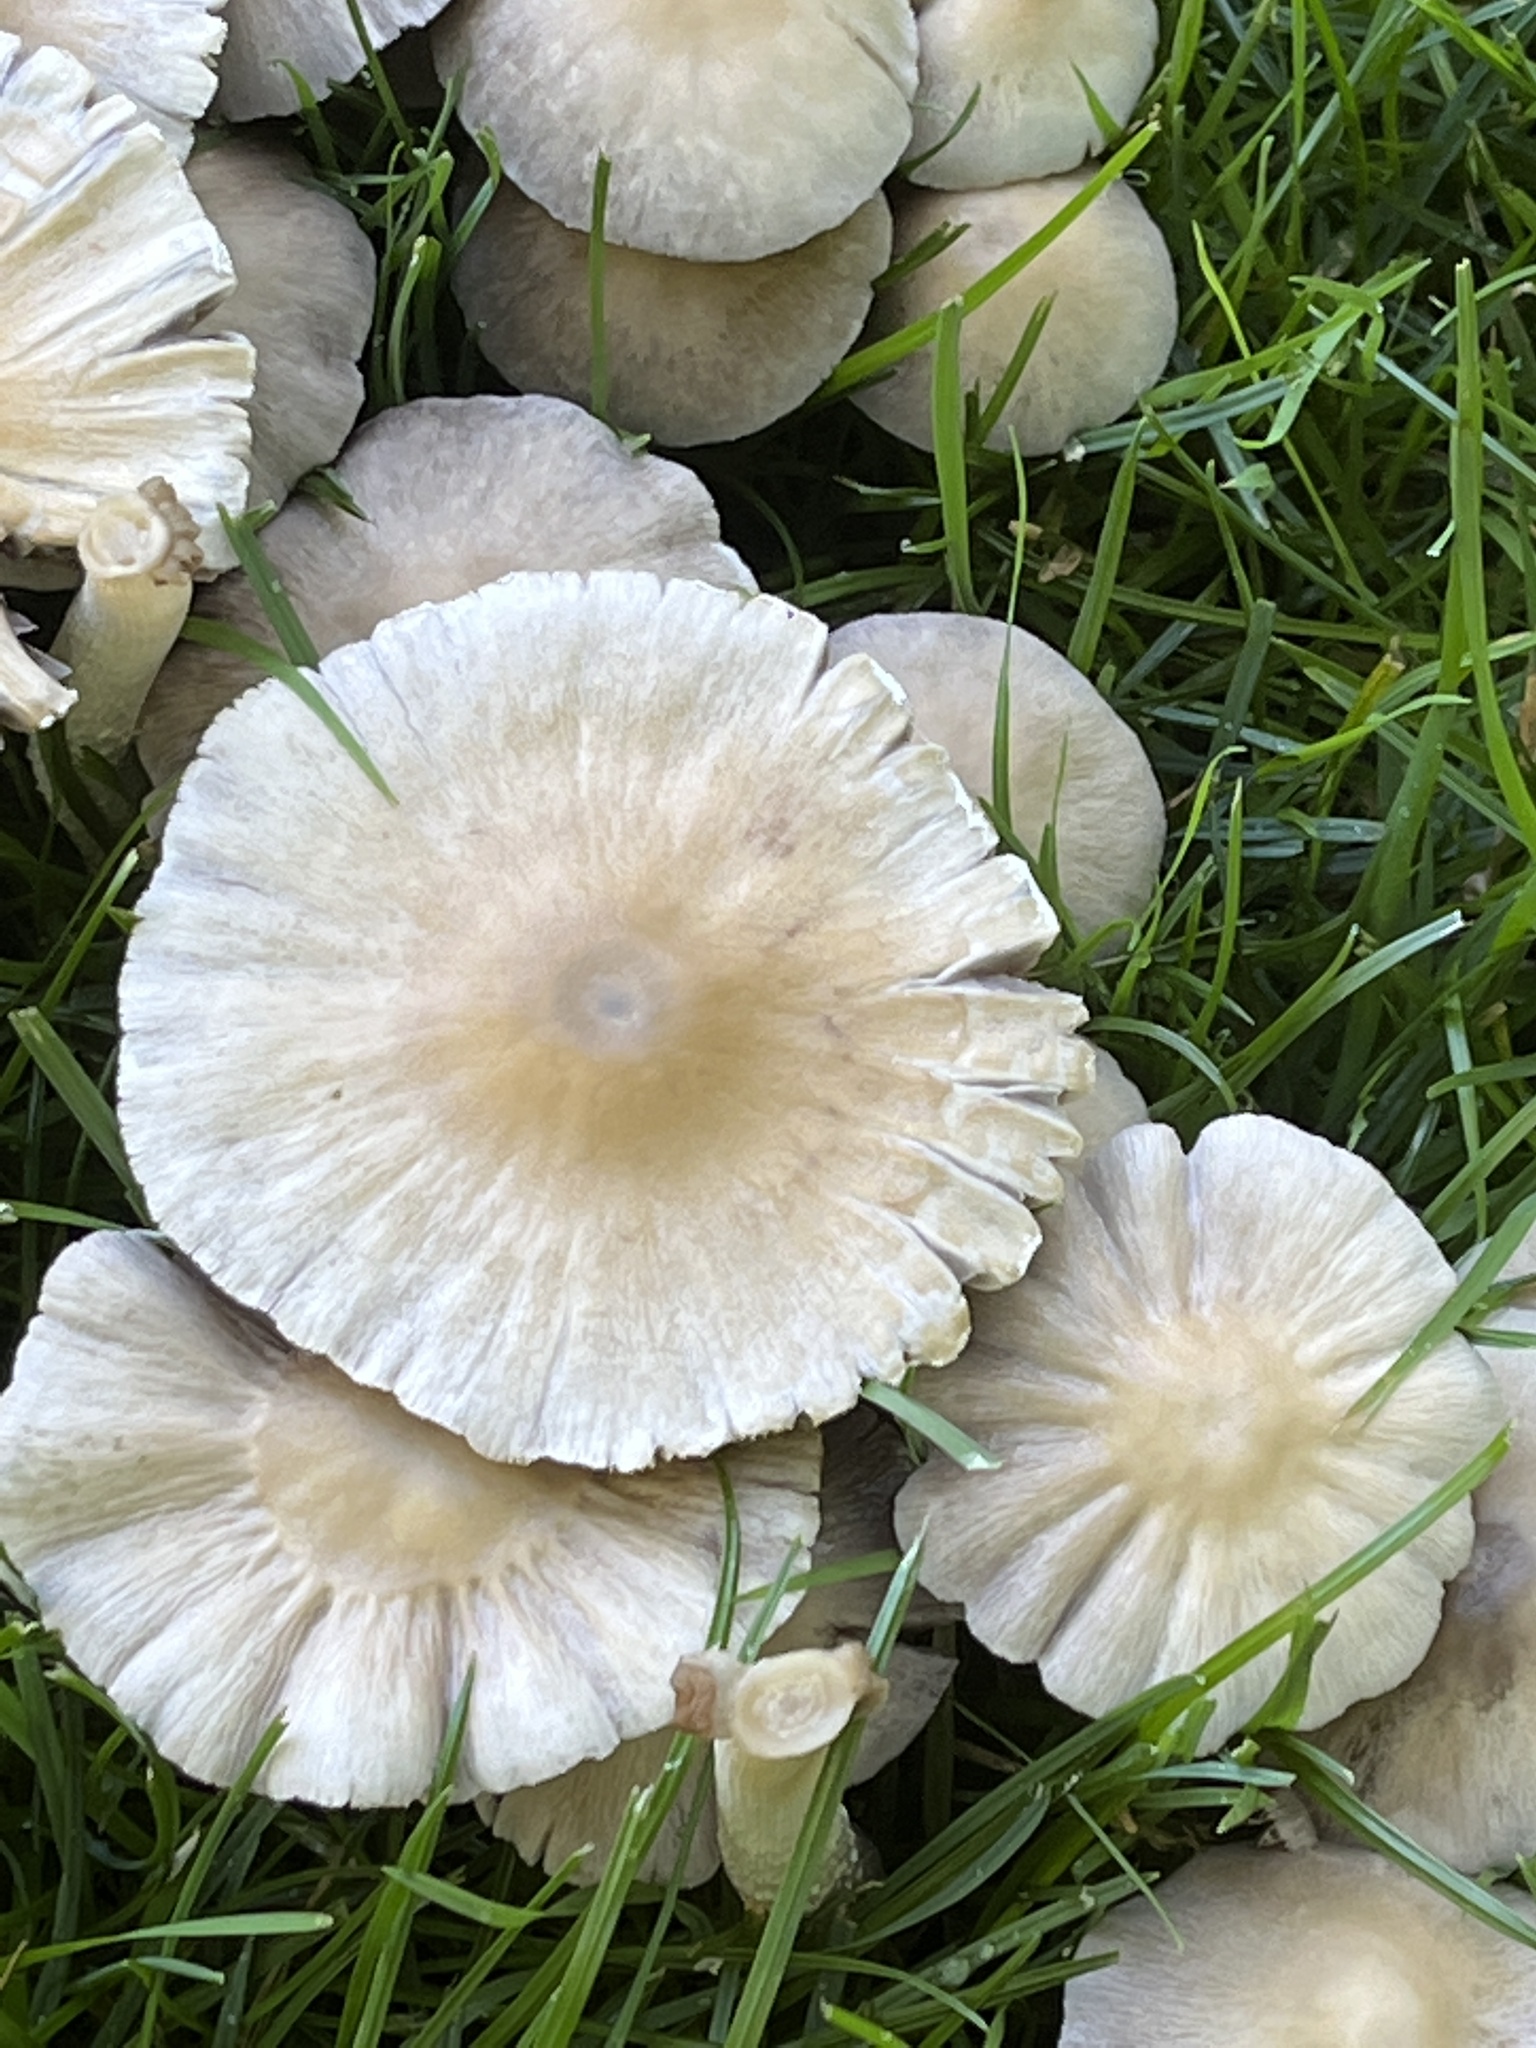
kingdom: Fungi
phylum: Basidiomycota
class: Agaricomycetes
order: Agaricales
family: Psathyrellaceae
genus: Candolleomyces
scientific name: Candolleomyces candolleanus
